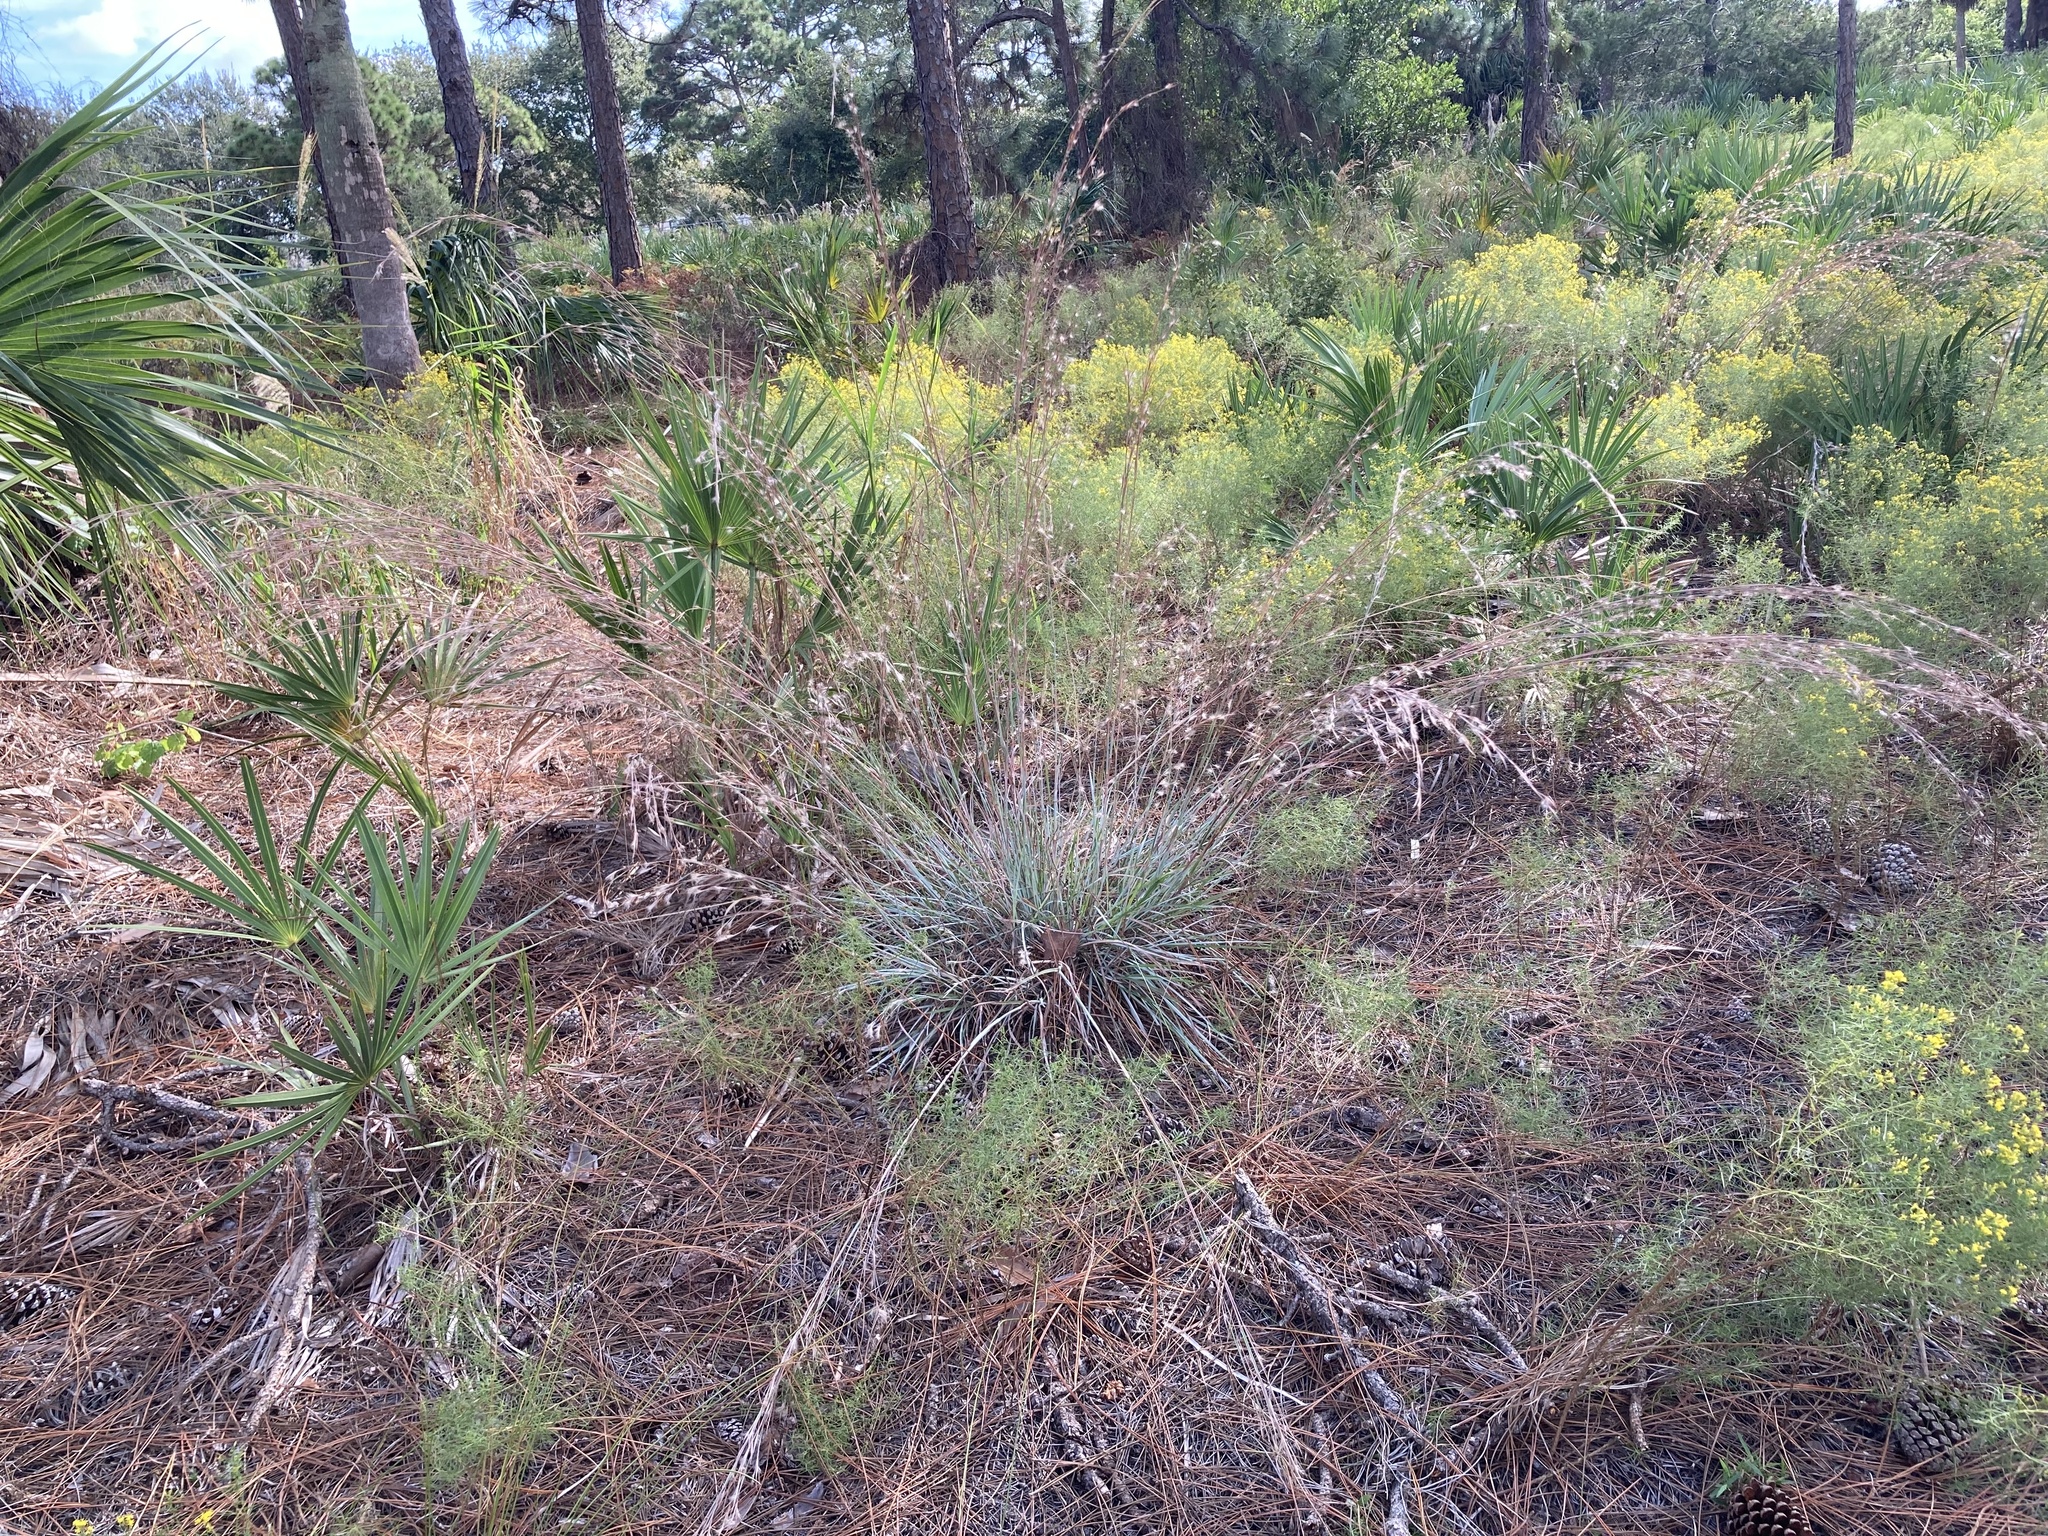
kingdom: Plantae
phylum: Tracheophyta
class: Liliopsida
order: Poales
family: Poaceae
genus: Andropogon
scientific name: Andropogon capillipes
